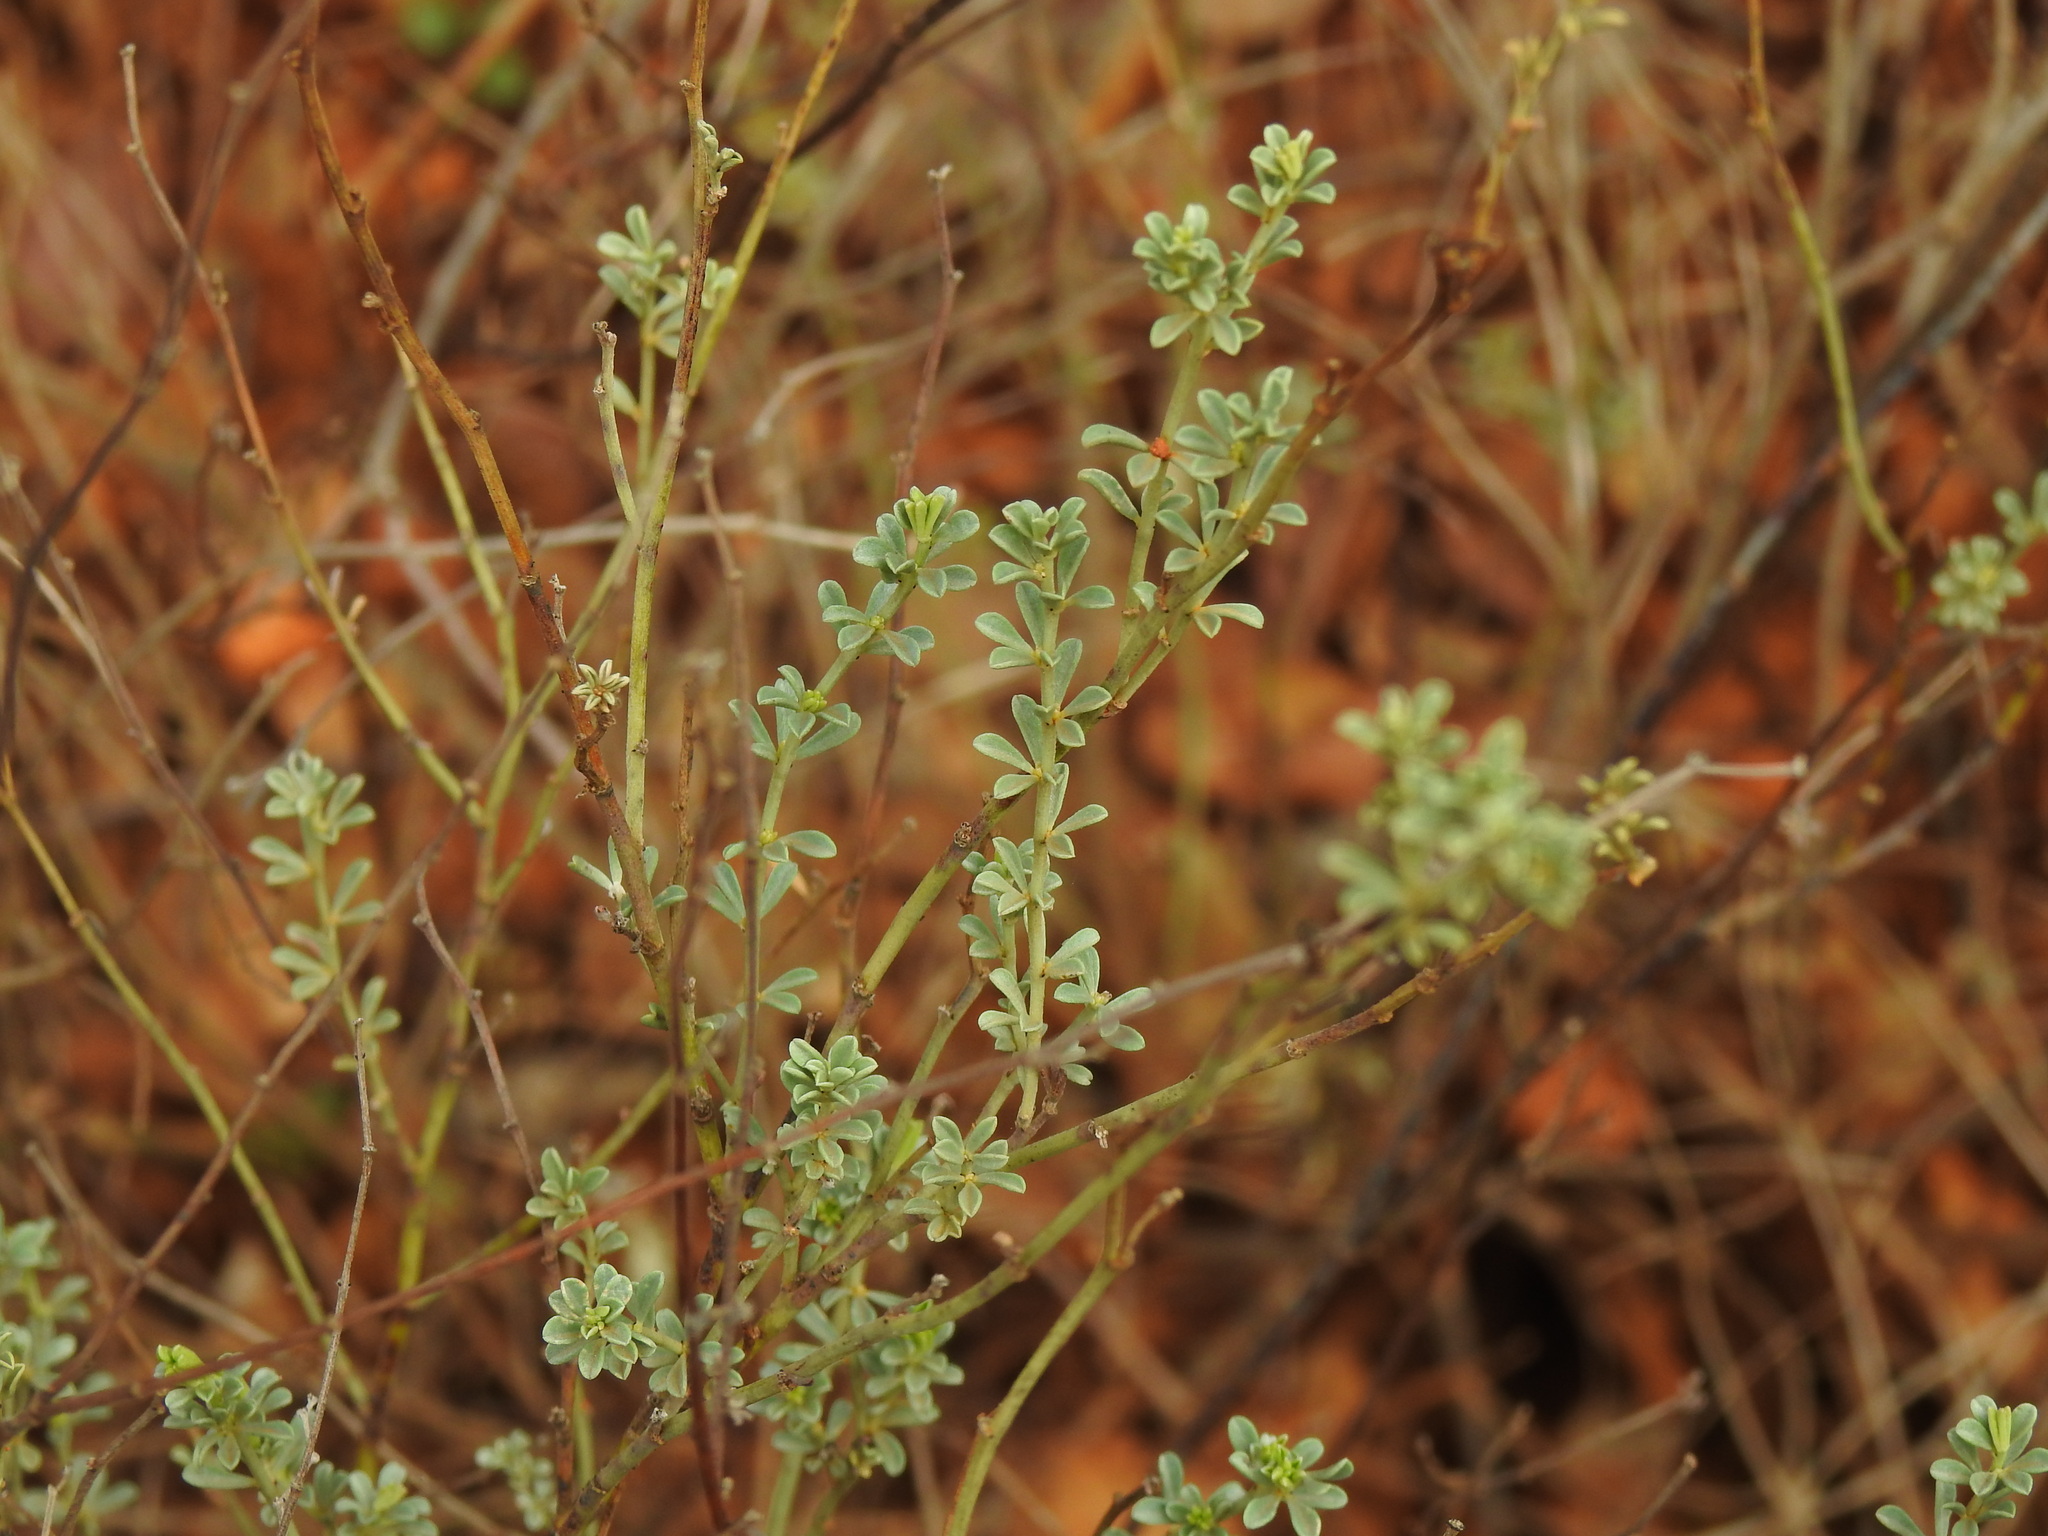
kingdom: Plantae
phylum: Tracheophyta
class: Magnoliopsida
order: Fabales
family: Fabaceae
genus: Lotus
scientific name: Lotus dorycnium
